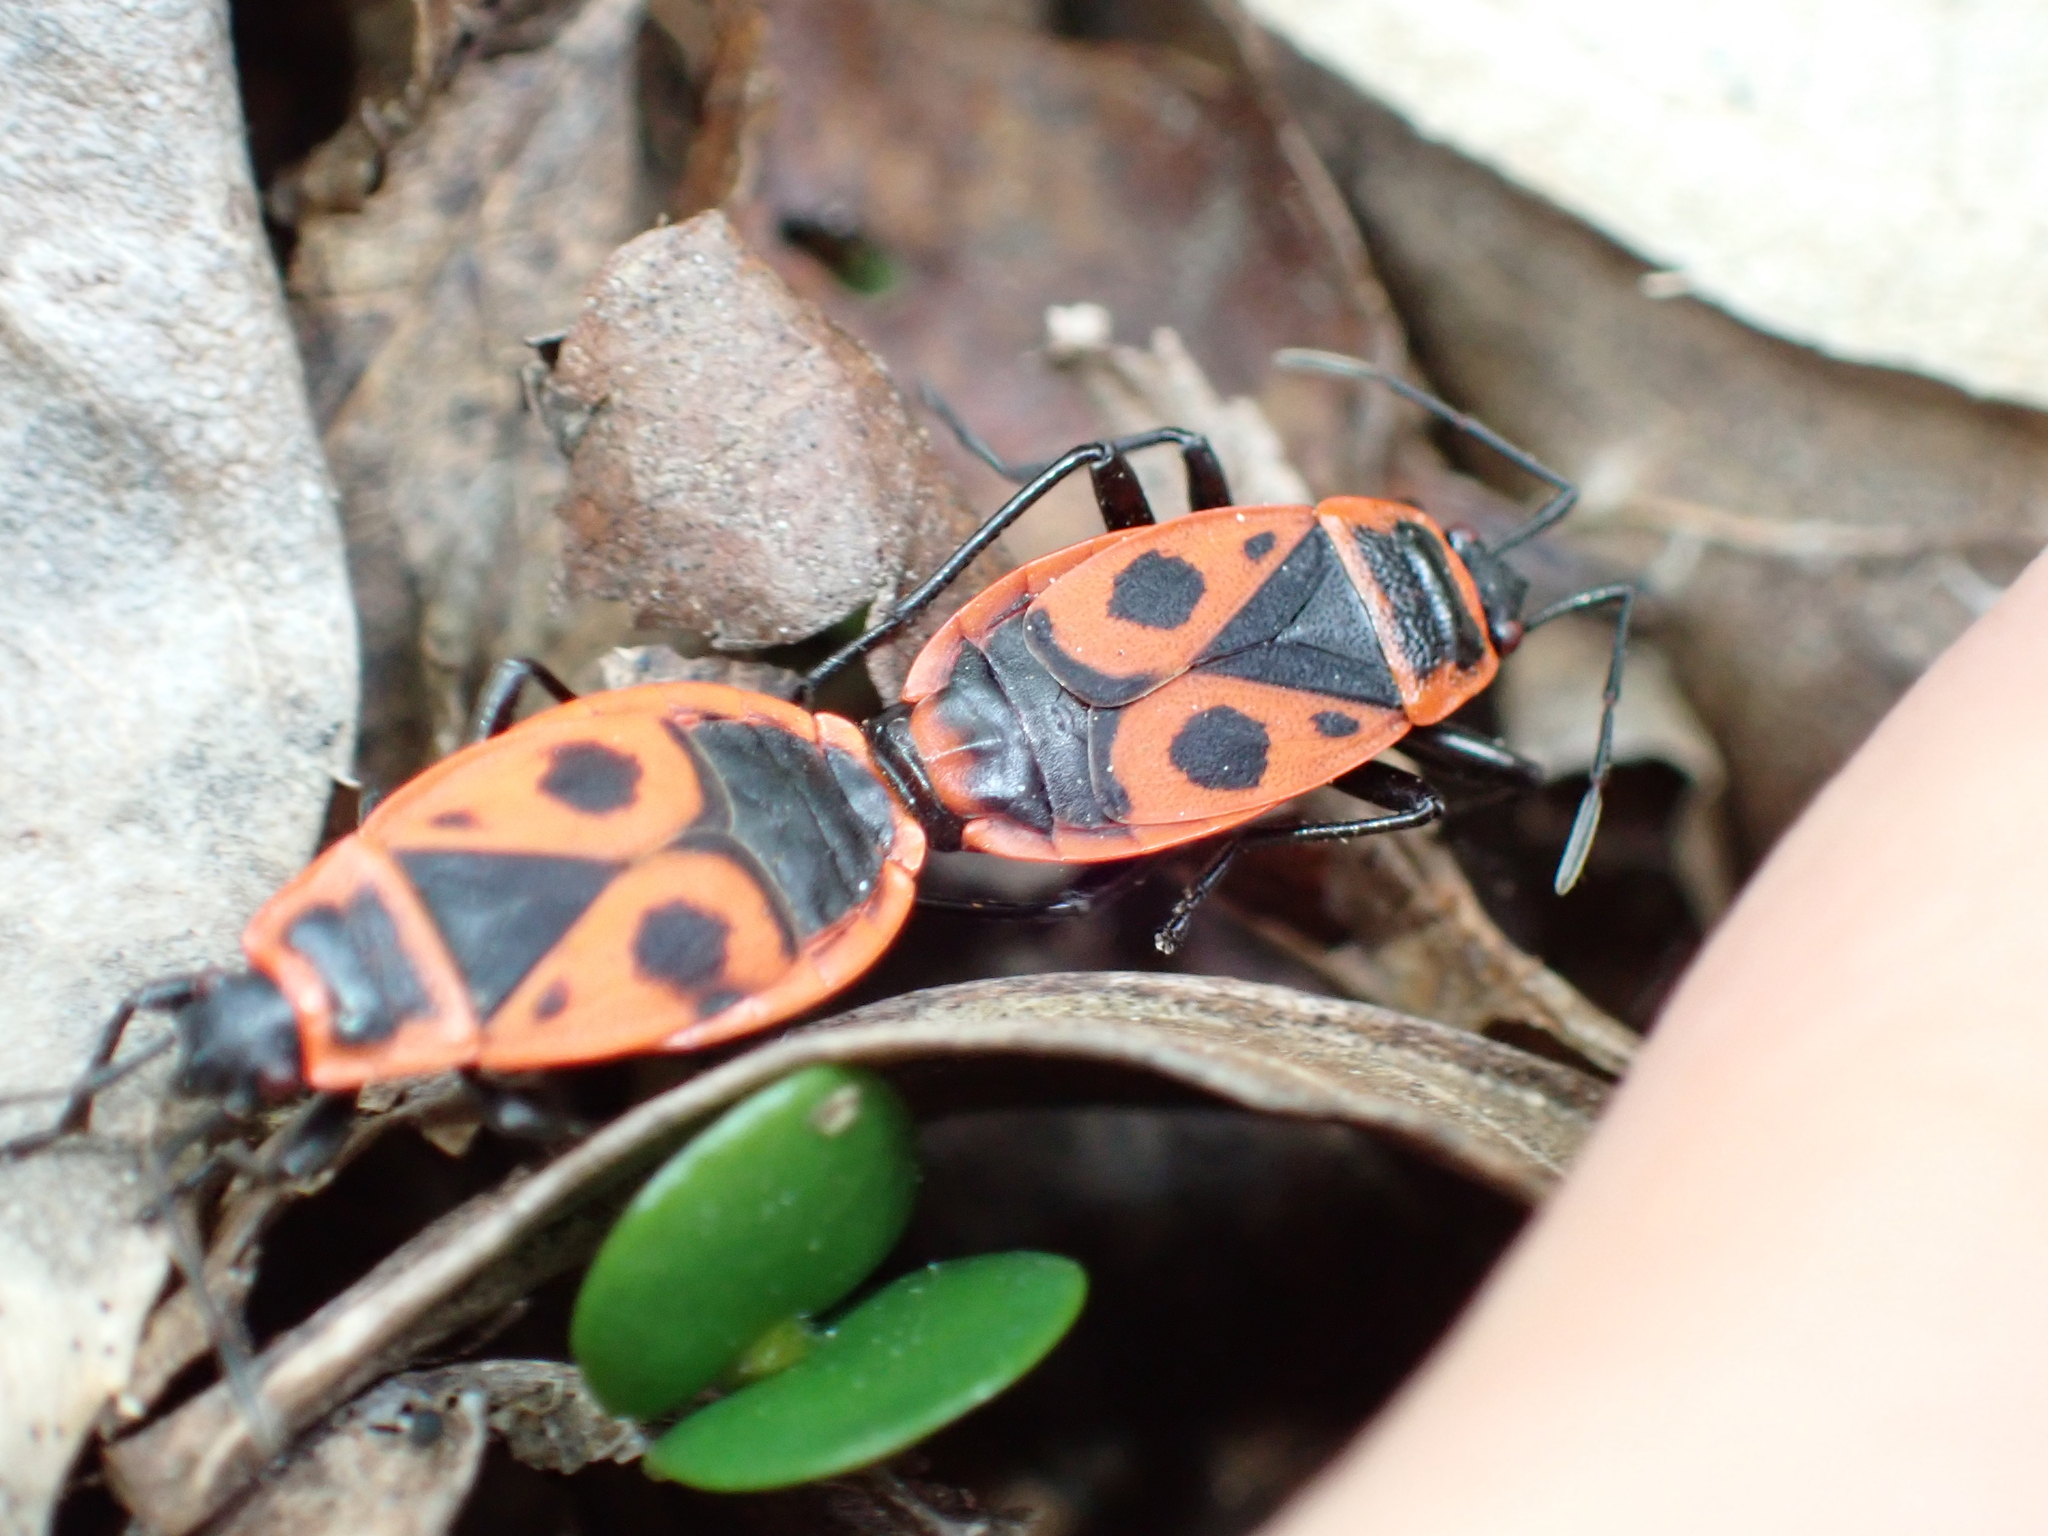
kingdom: Animalia
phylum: Arthropoda
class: Insecta
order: Hemiptera
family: Pyrrhocoridae
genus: Pyrrhocoris
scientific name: Pyrrhocoris apterus
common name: Firebug
